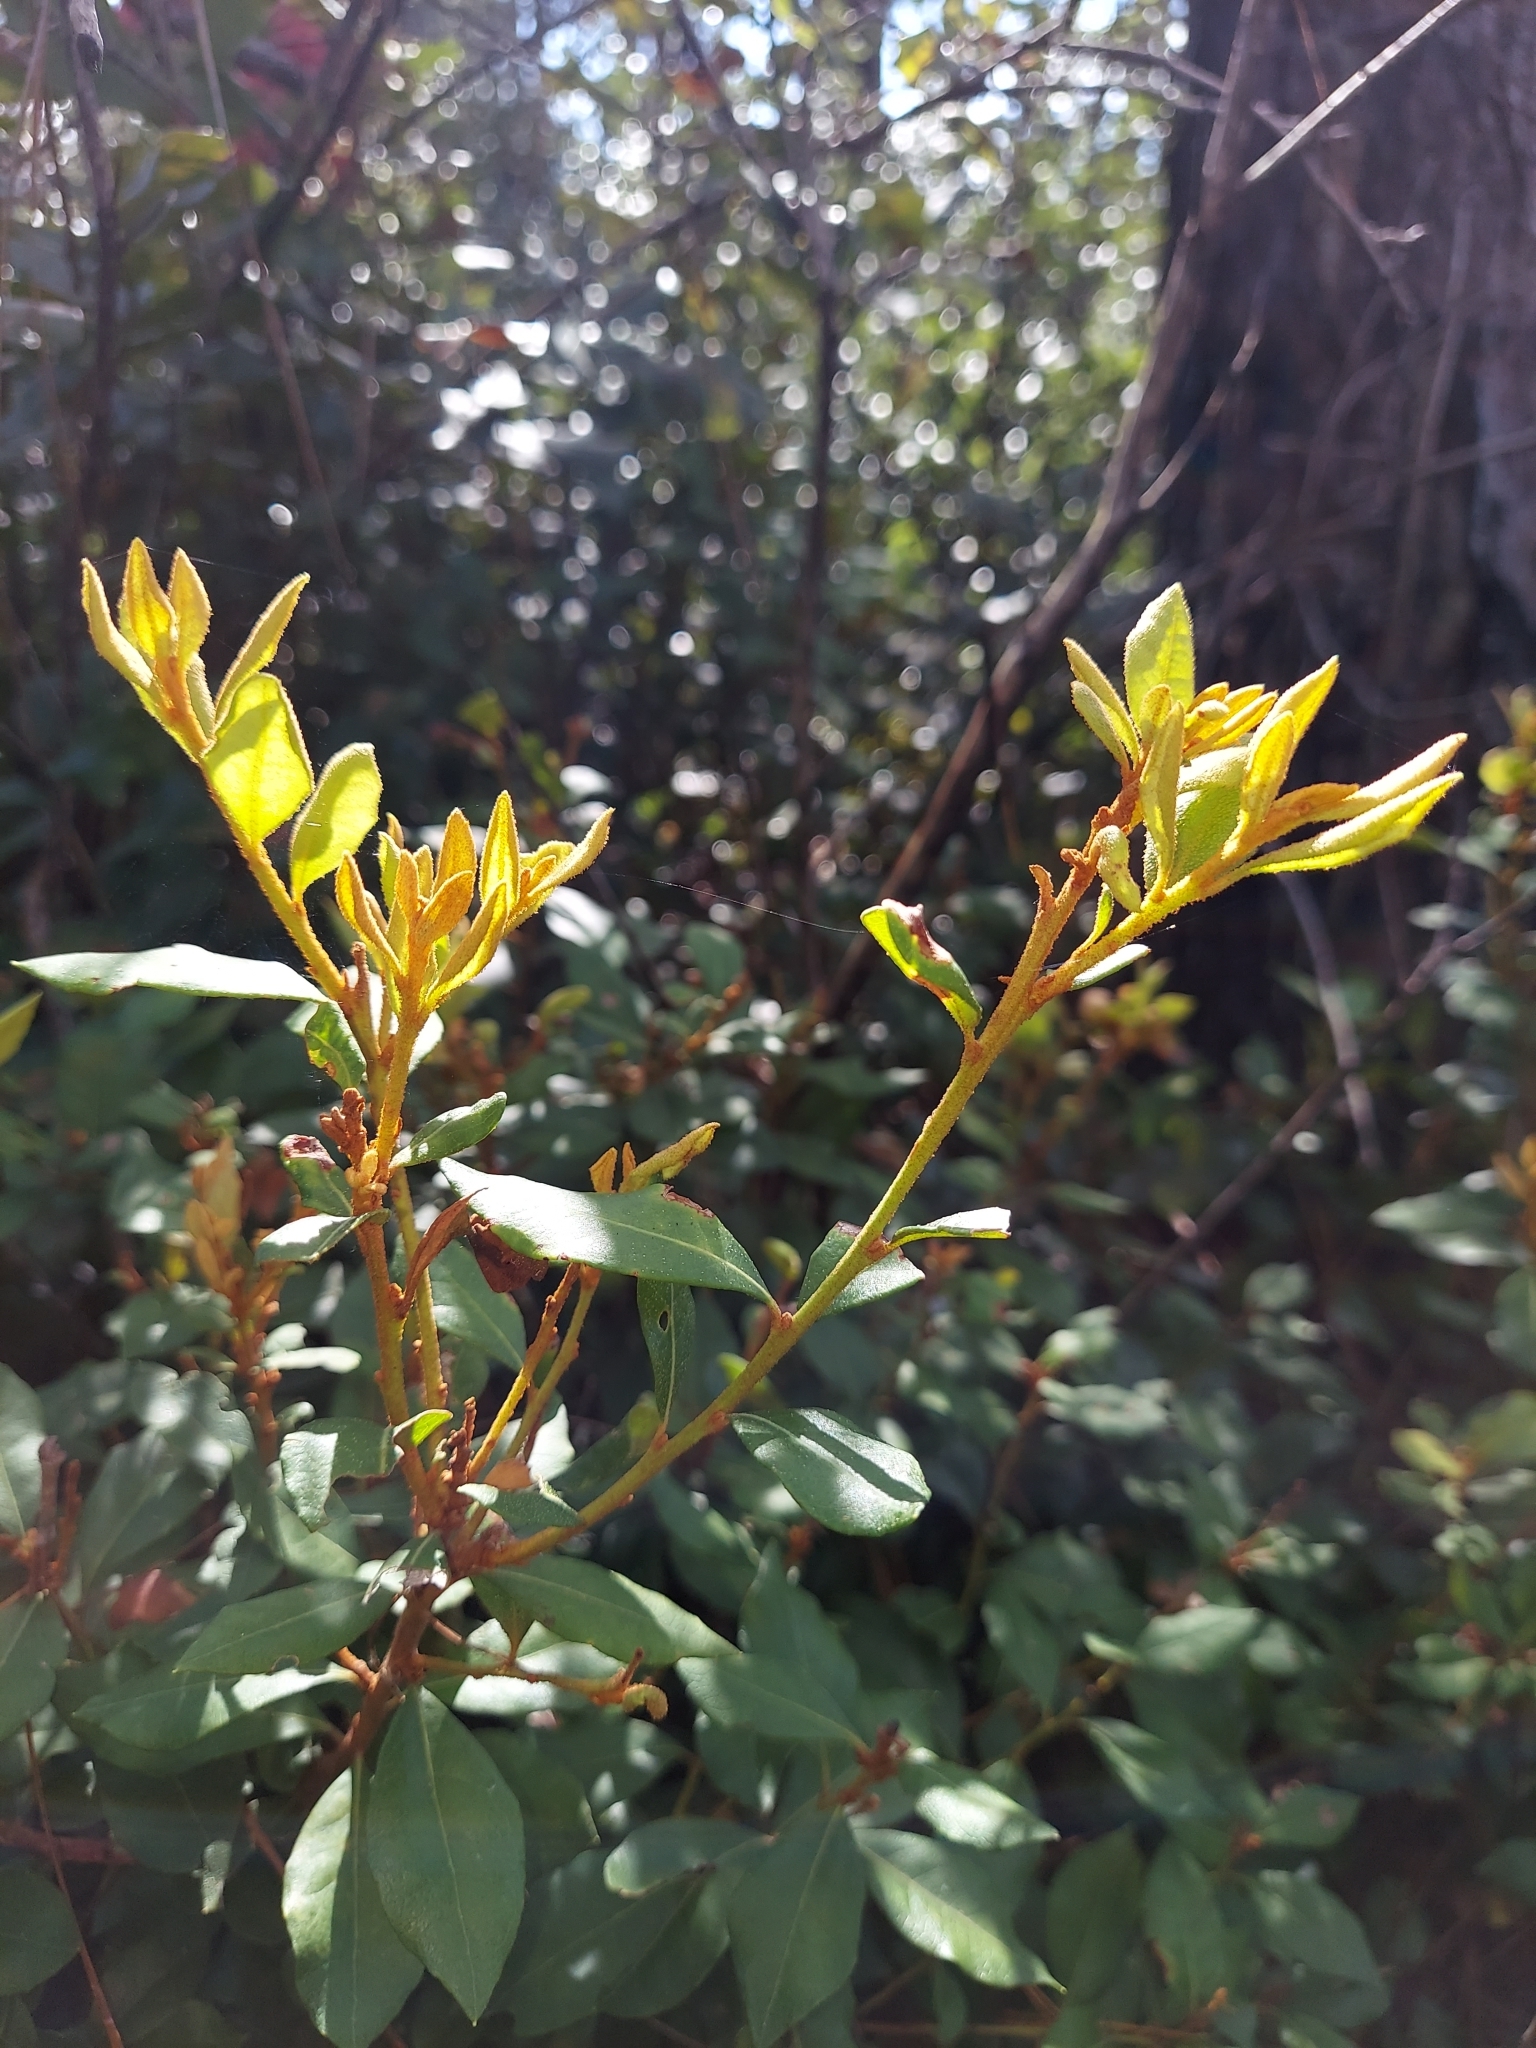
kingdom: Plantae
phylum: Tracheophyta
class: Magnoliopsida
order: Ericales
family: Ericaceae
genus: Lyonia
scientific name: Lyonia fruticosa
